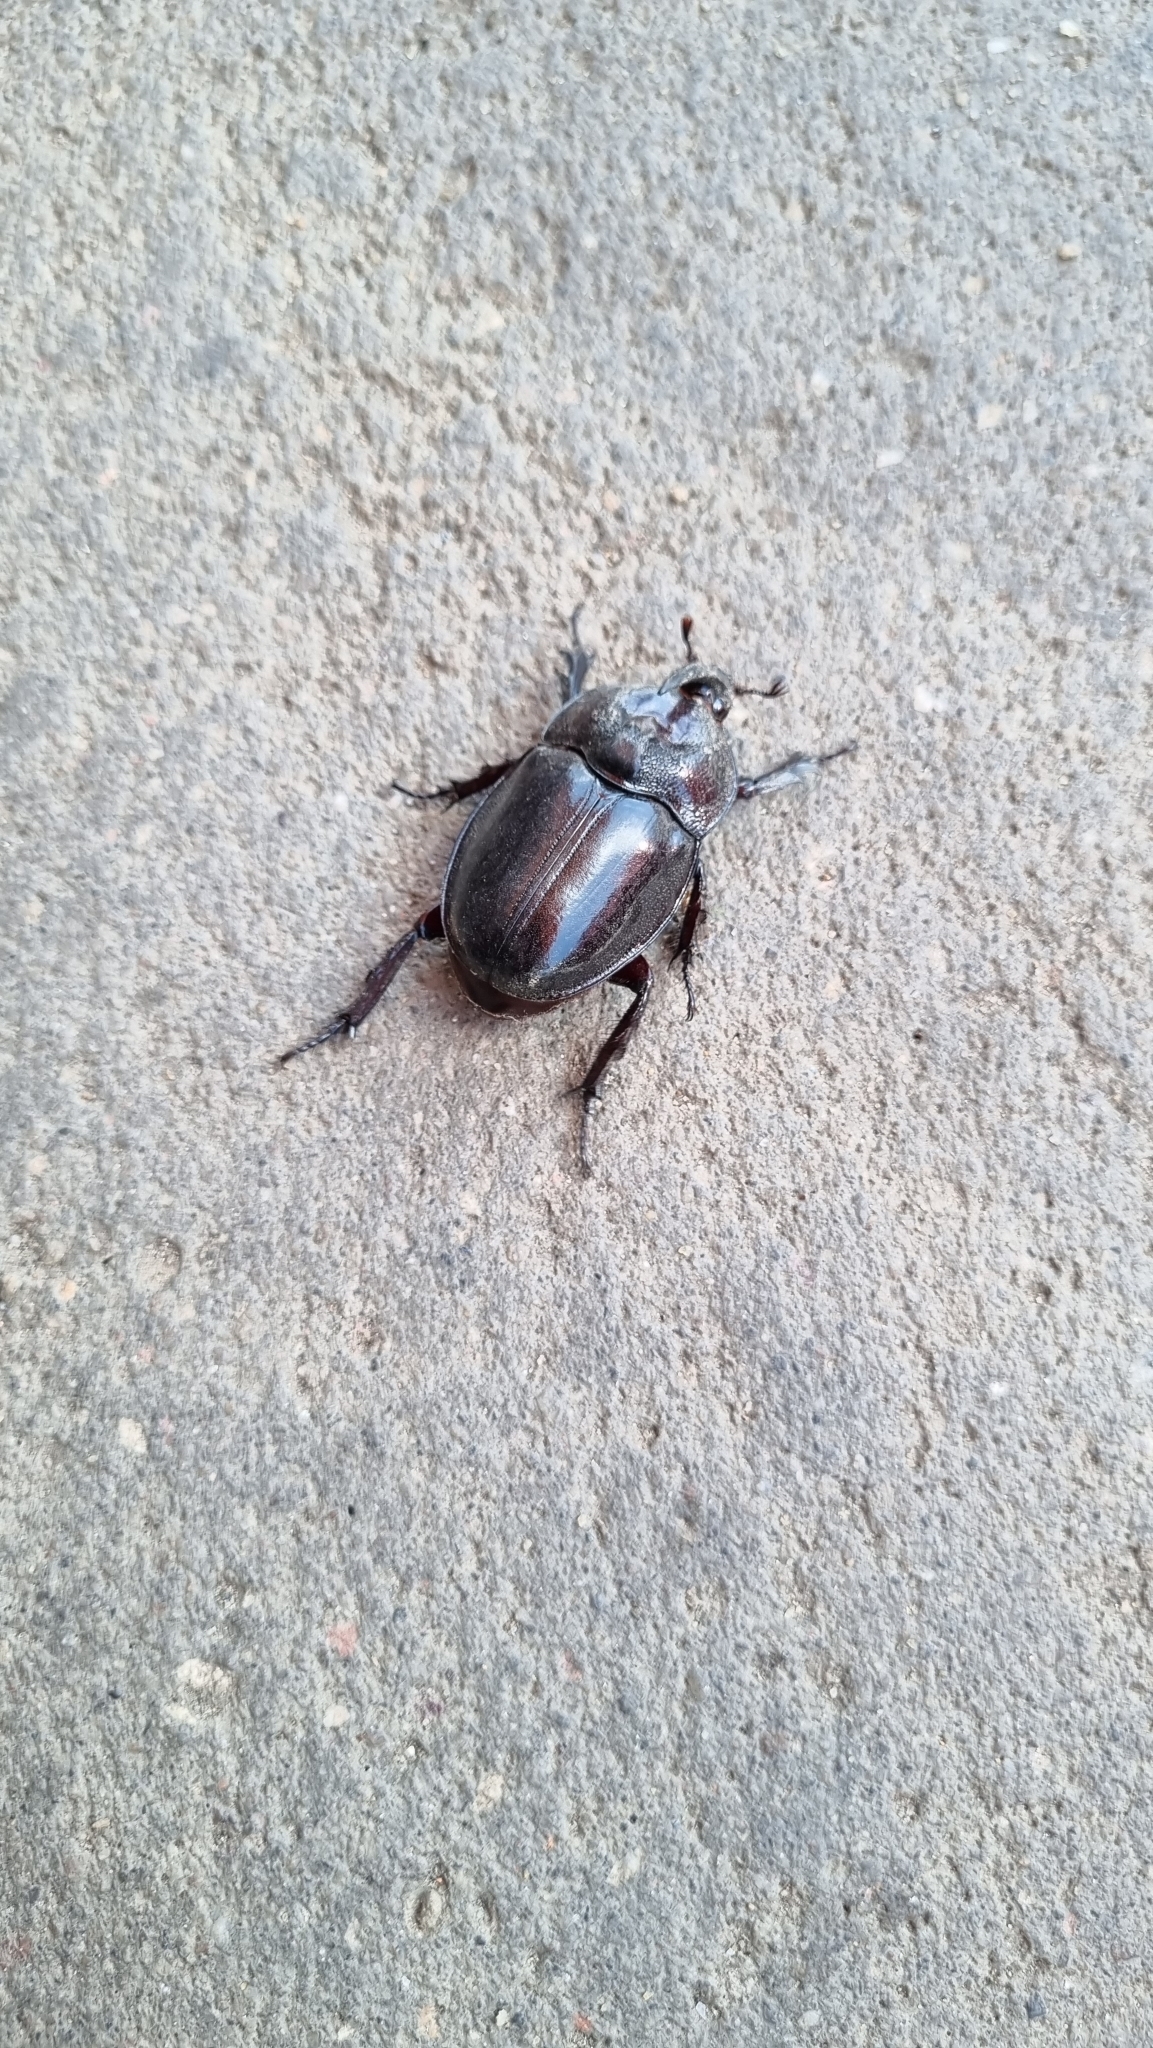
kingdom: Animalia
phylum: Arthropoda
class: Insecta
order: Coleoptera
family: Scarabaeidae
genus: Enema
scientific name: Enema pan
